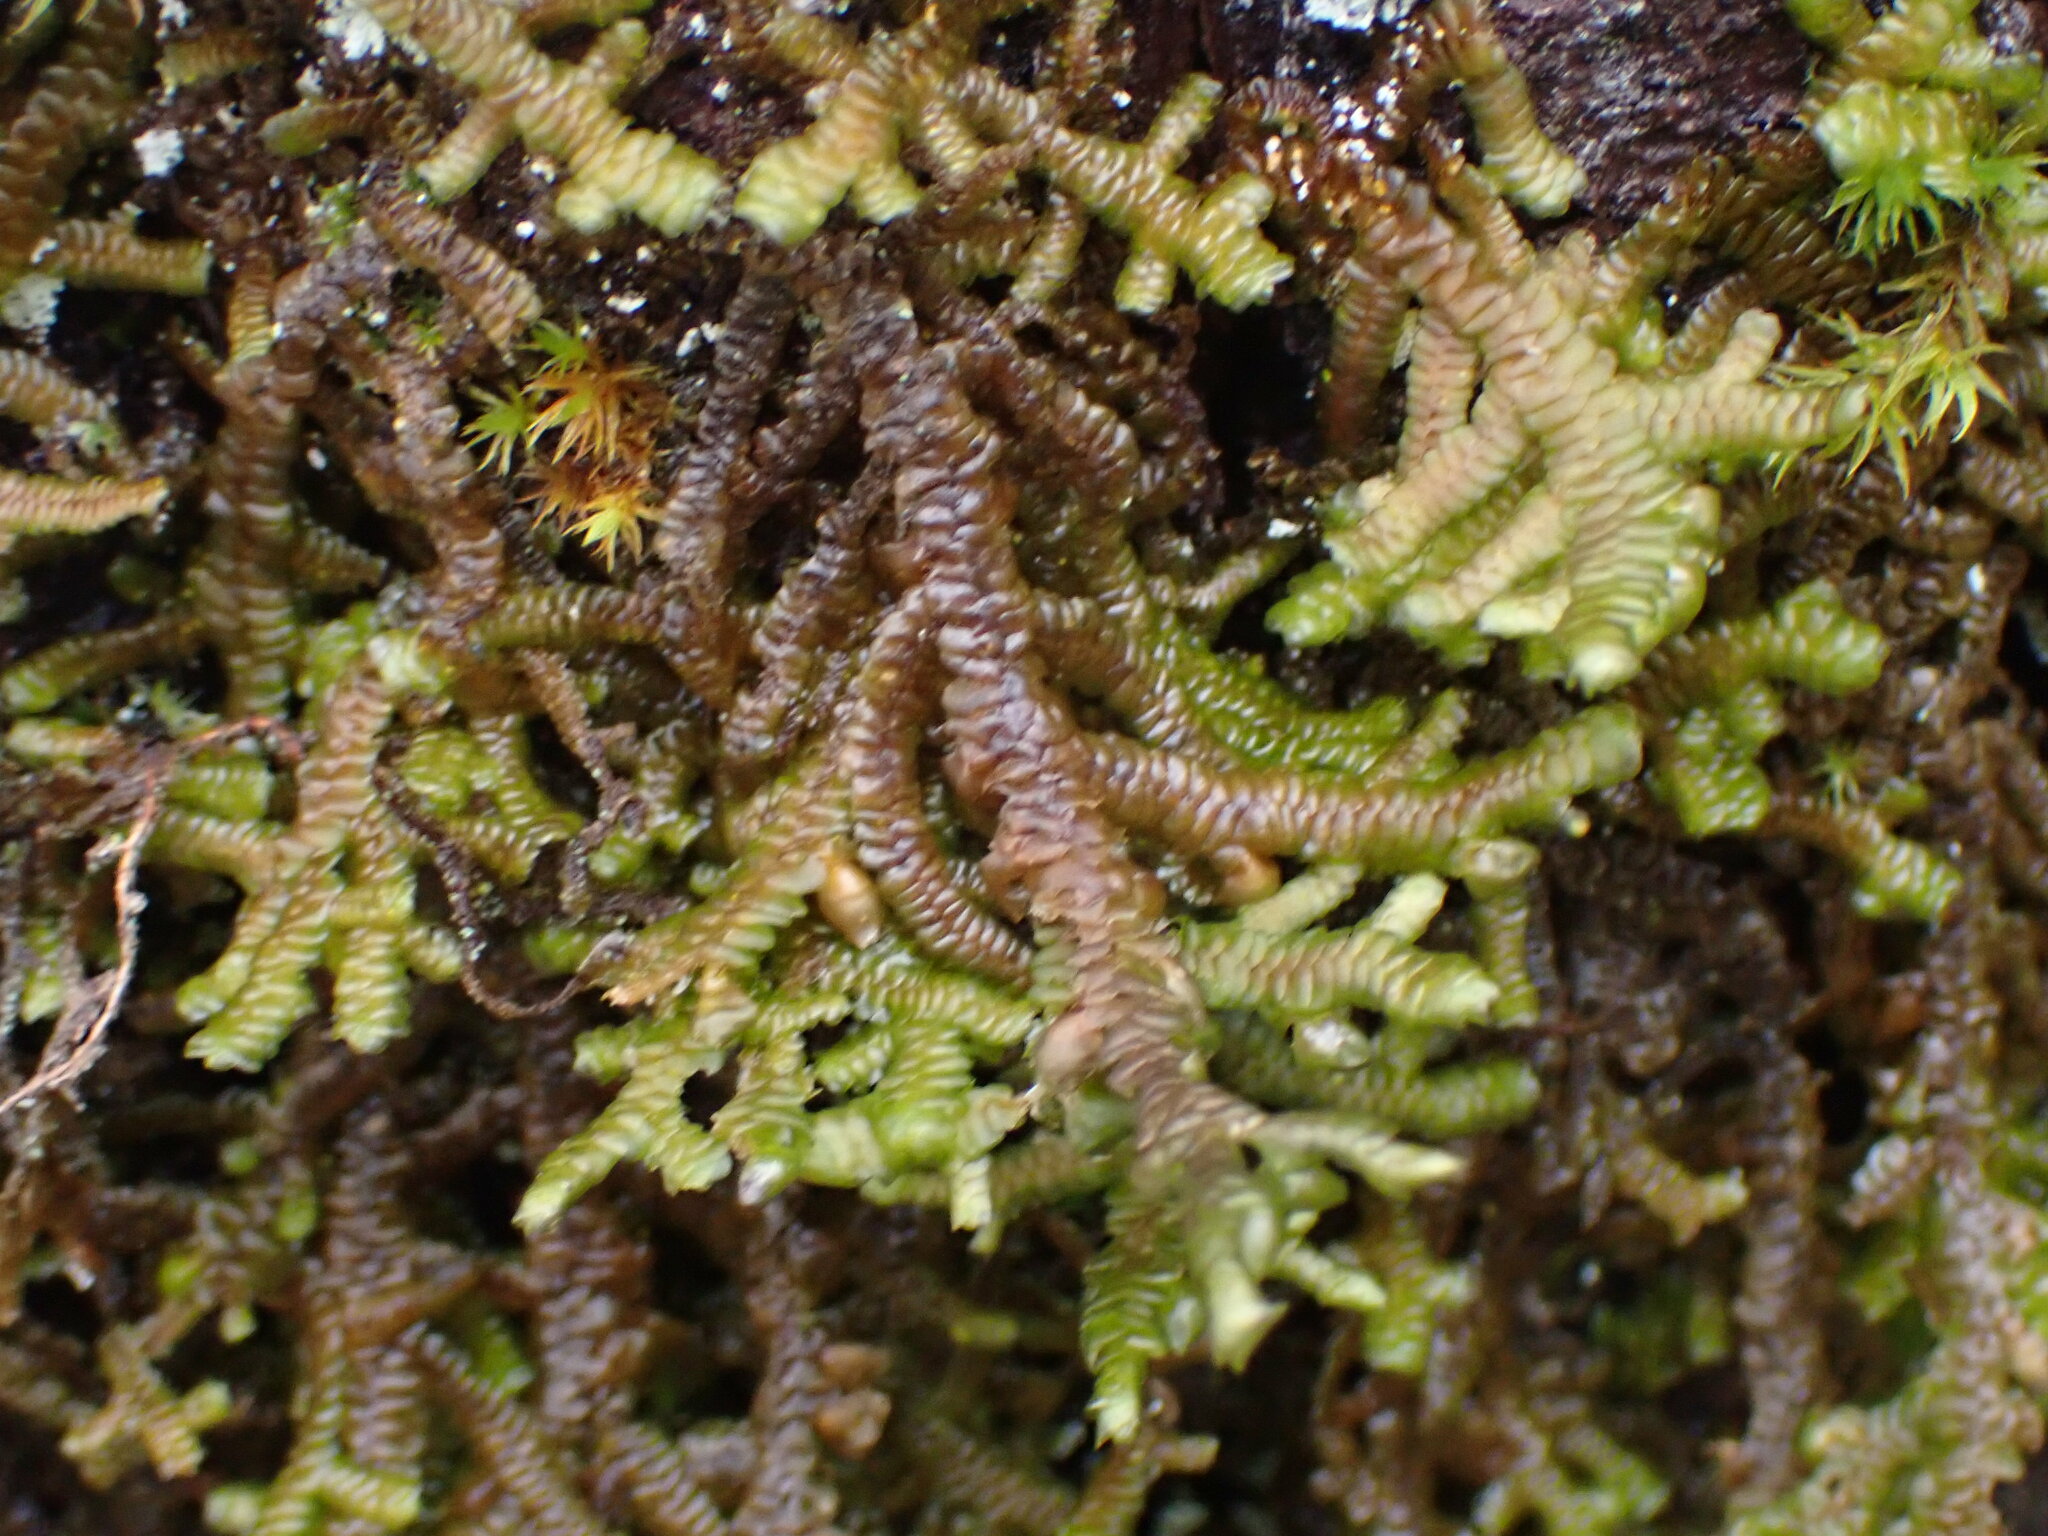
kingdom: Plantae
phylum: Marchantiophyta
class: Jungermanniopsida
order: Porellales
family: Porellaceae
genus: Porella
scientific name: Porella navicularis
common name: Tree ruffle liverwort
